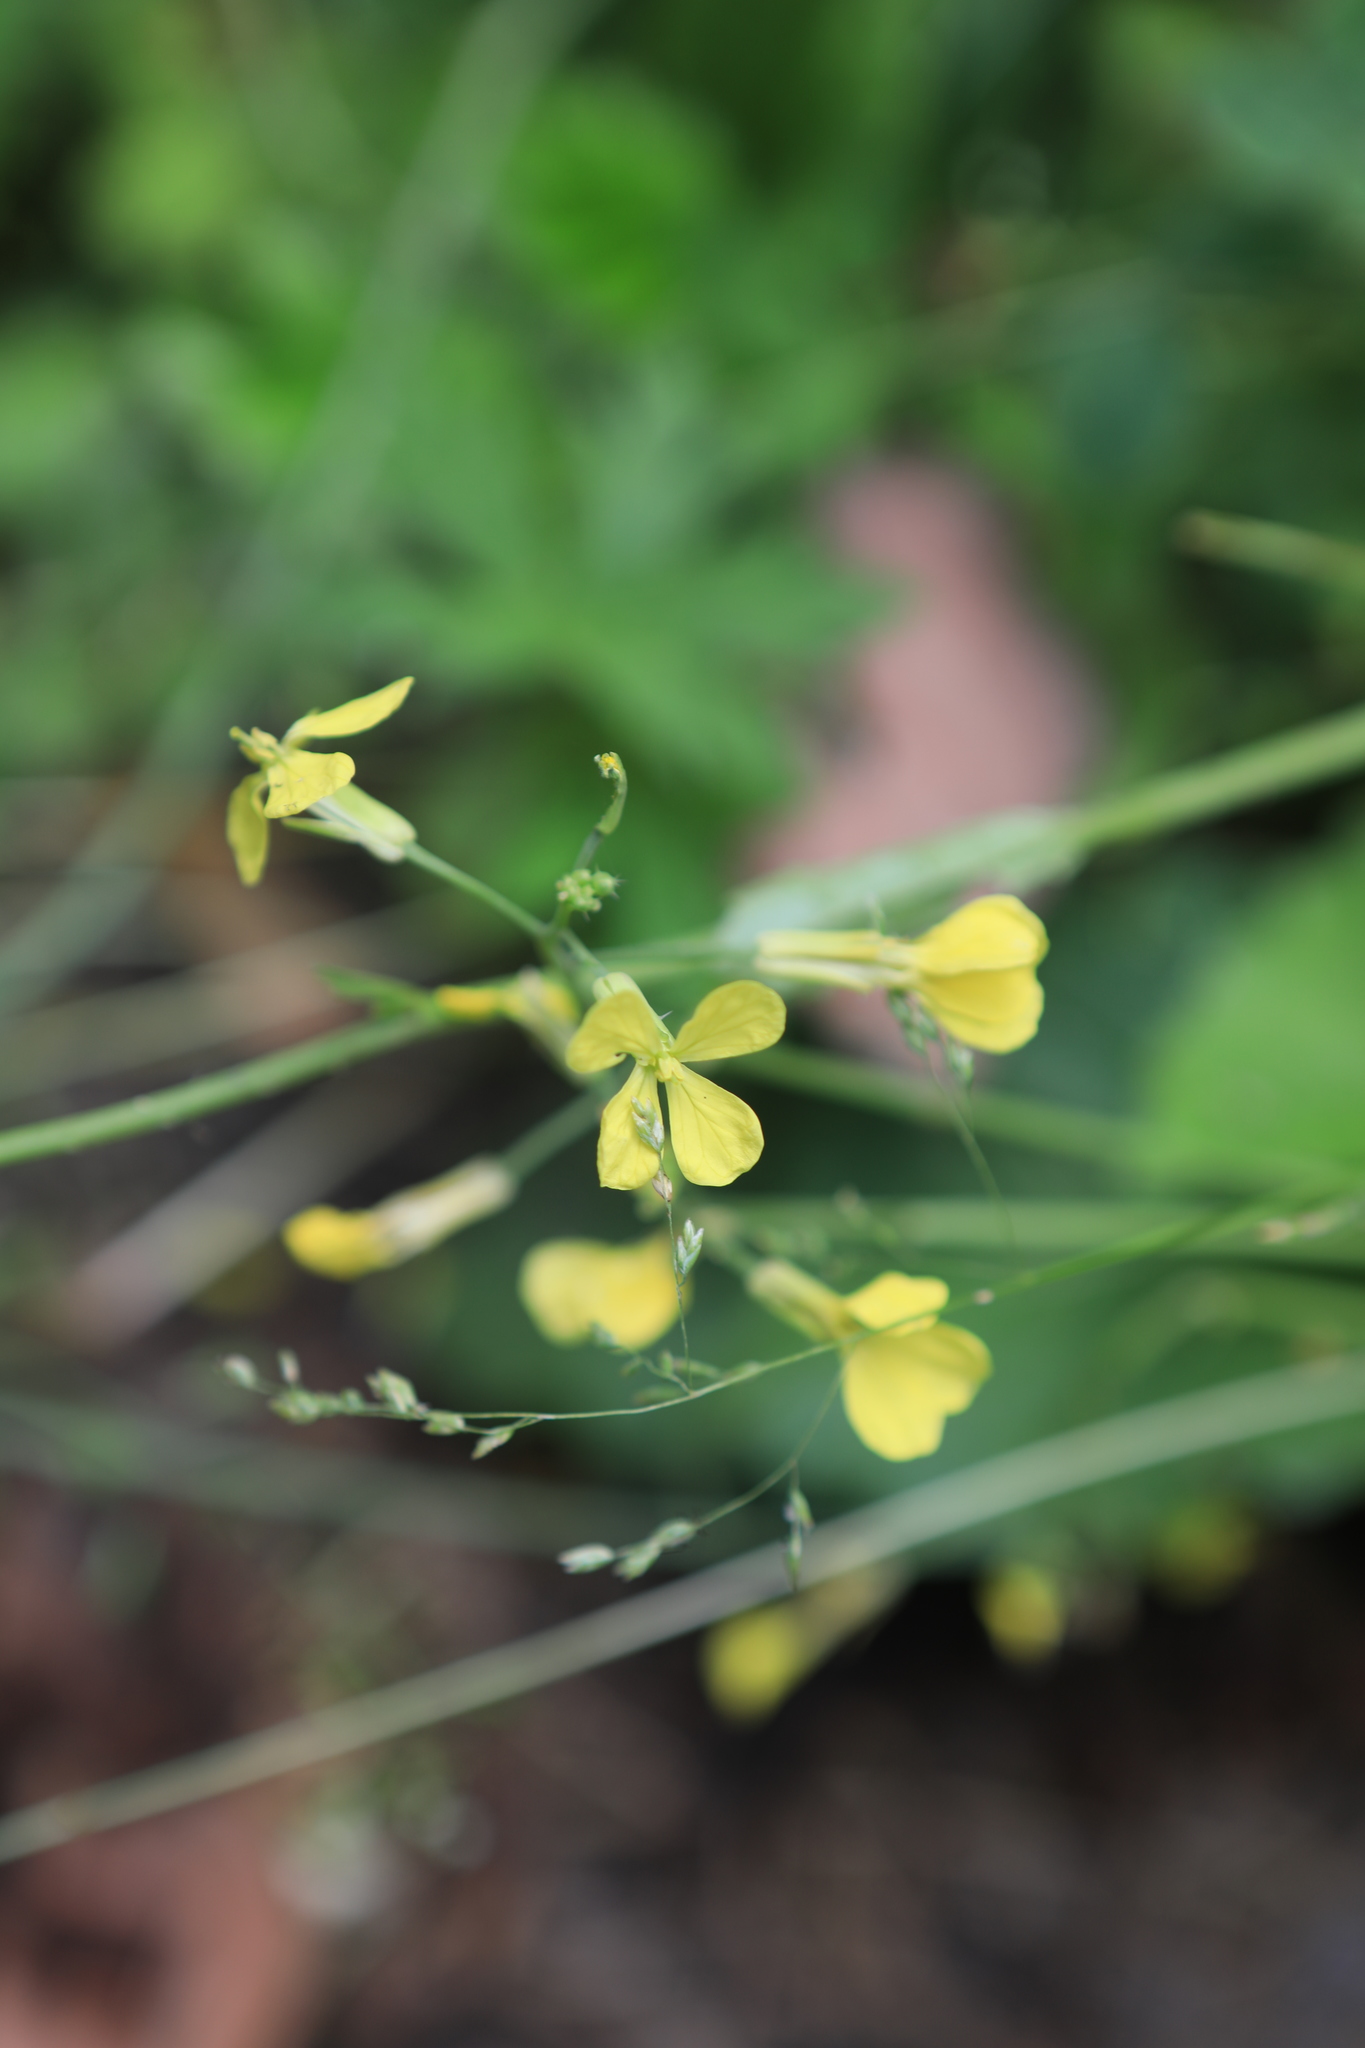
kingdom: Plantae
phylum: Tracheophyta
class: Magnoliopsida
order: Brassicales
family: Brassicaceae
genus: Raphanus
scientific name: Raphanus raphanistrum
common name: Wild radish
